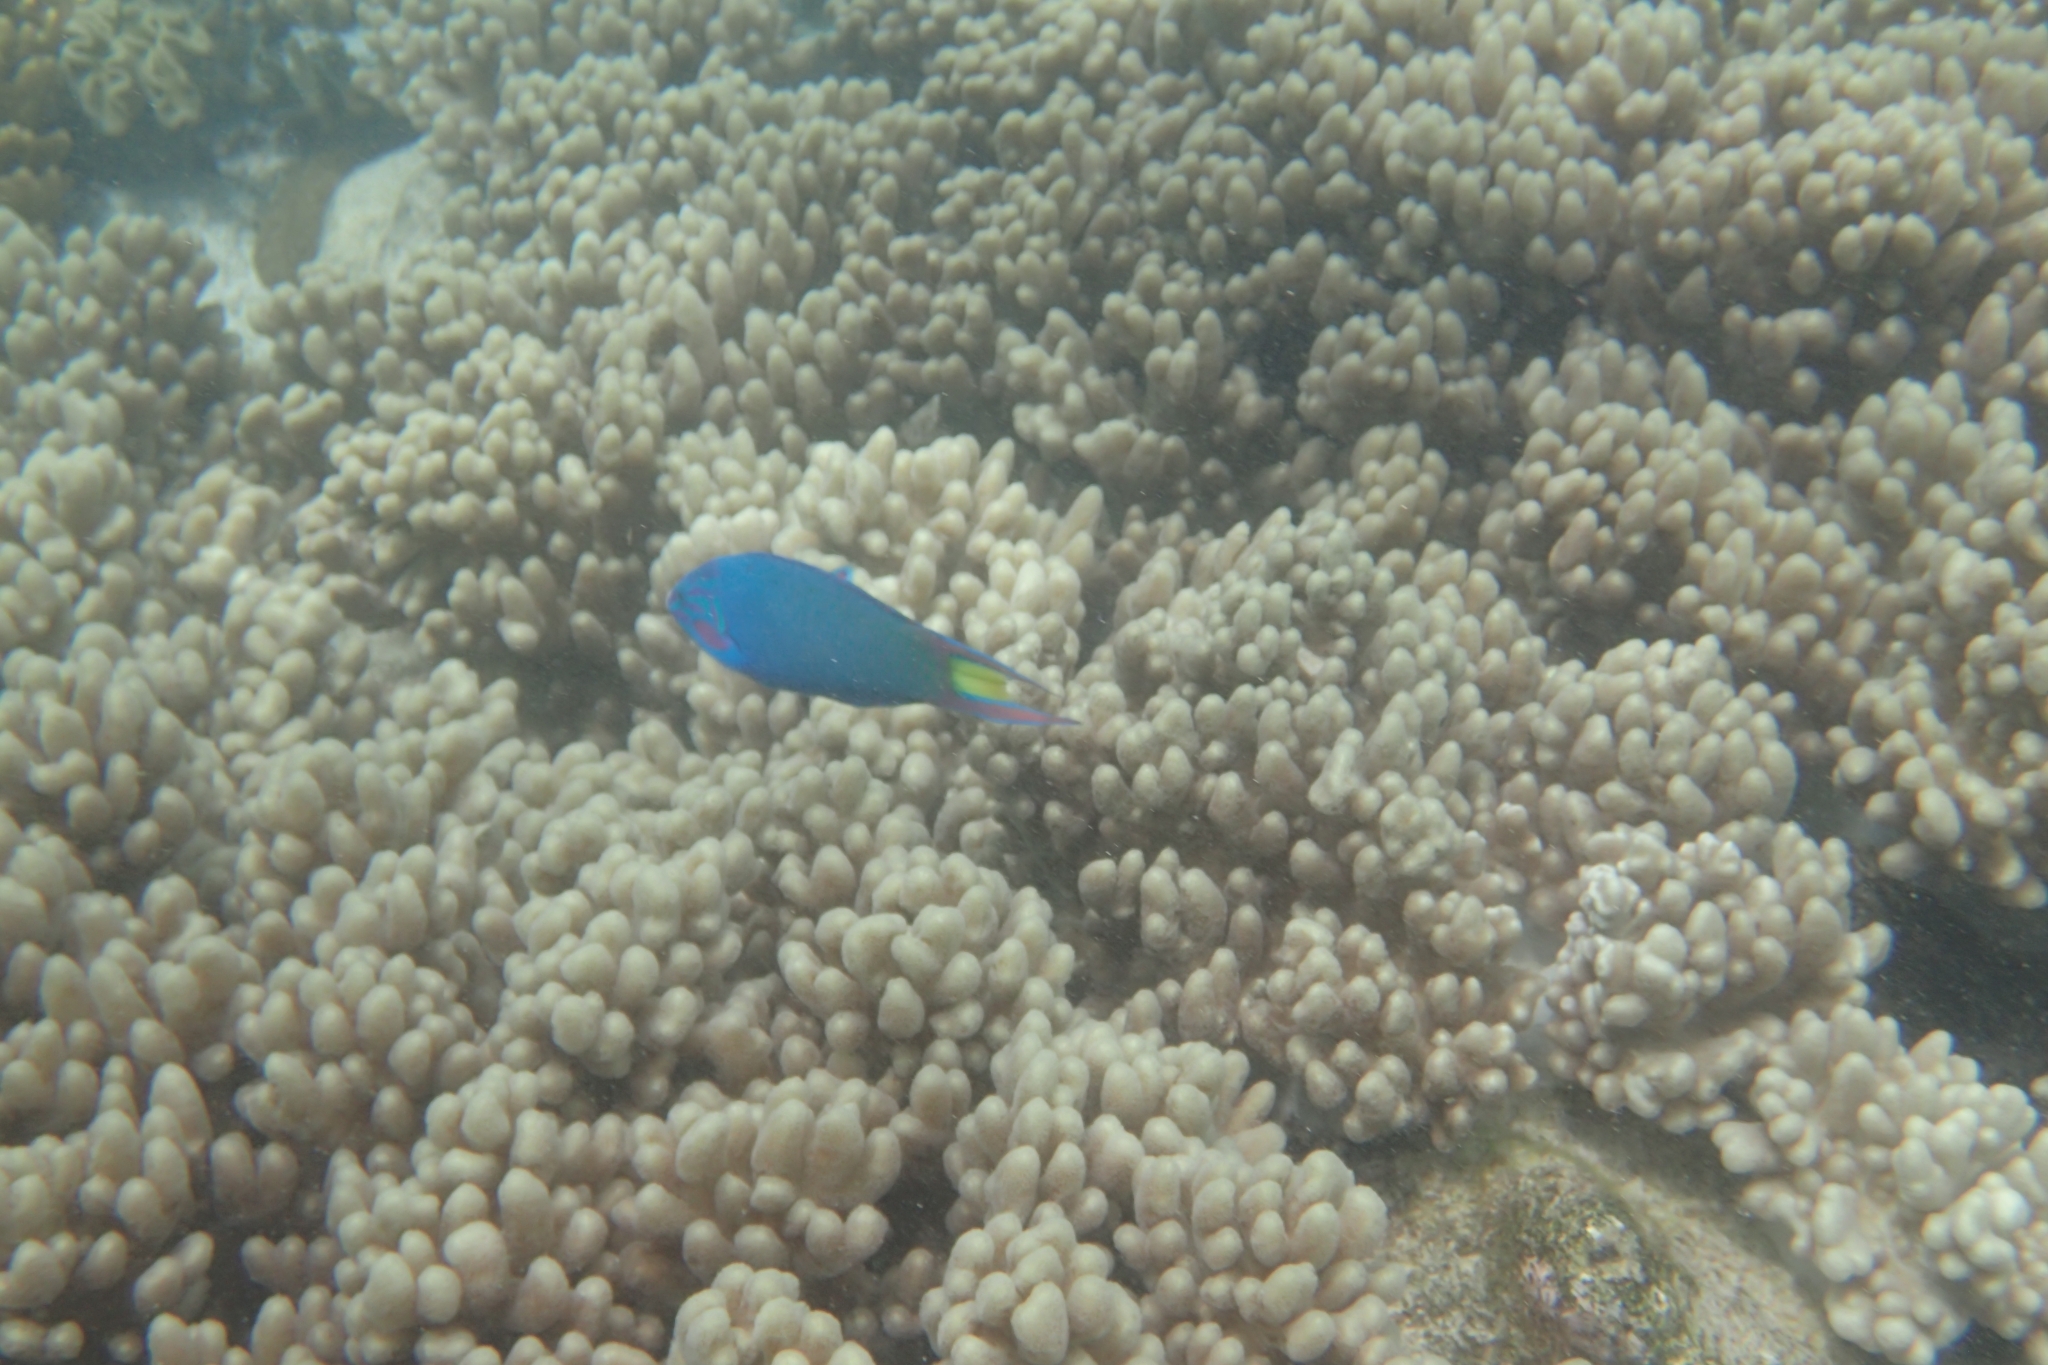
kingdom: Animalia
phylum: Chordata
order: Perciformes
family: Labridae
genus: Thalassoma
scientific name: Thalassoma lunare
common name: Blue wrasse
